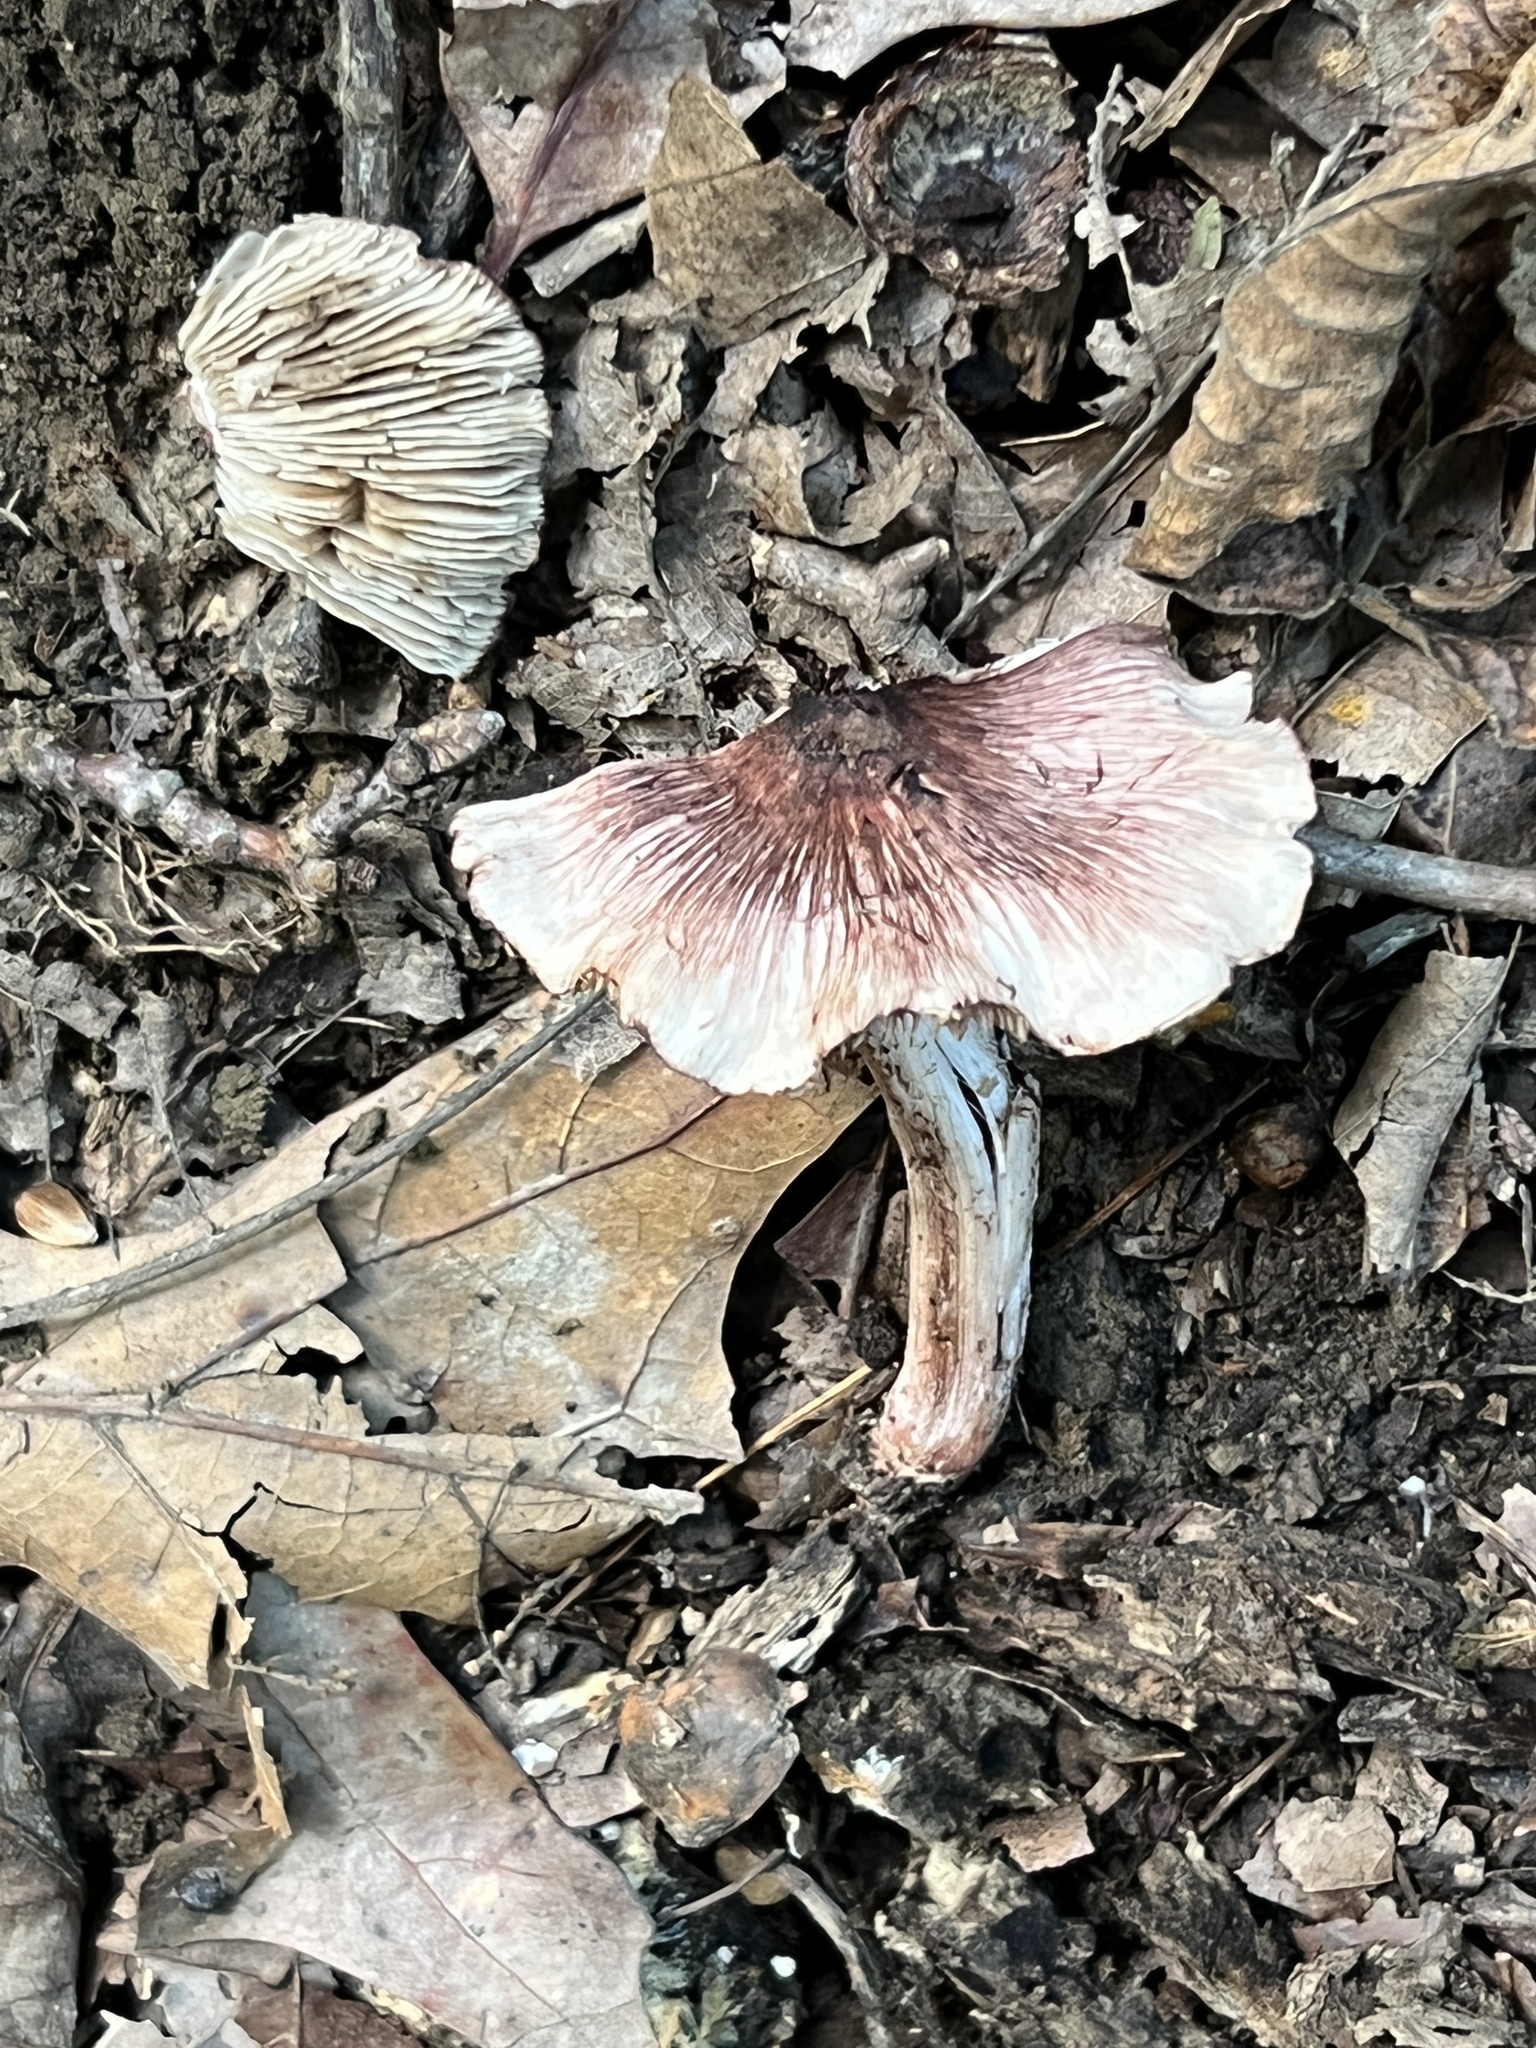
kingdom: Fungi
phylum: Basidiomycota
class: Agaricomycetes
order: Agaricales
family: Inocybaceae
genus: Inosperma
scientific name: Inosperma vinaceobrunneum
